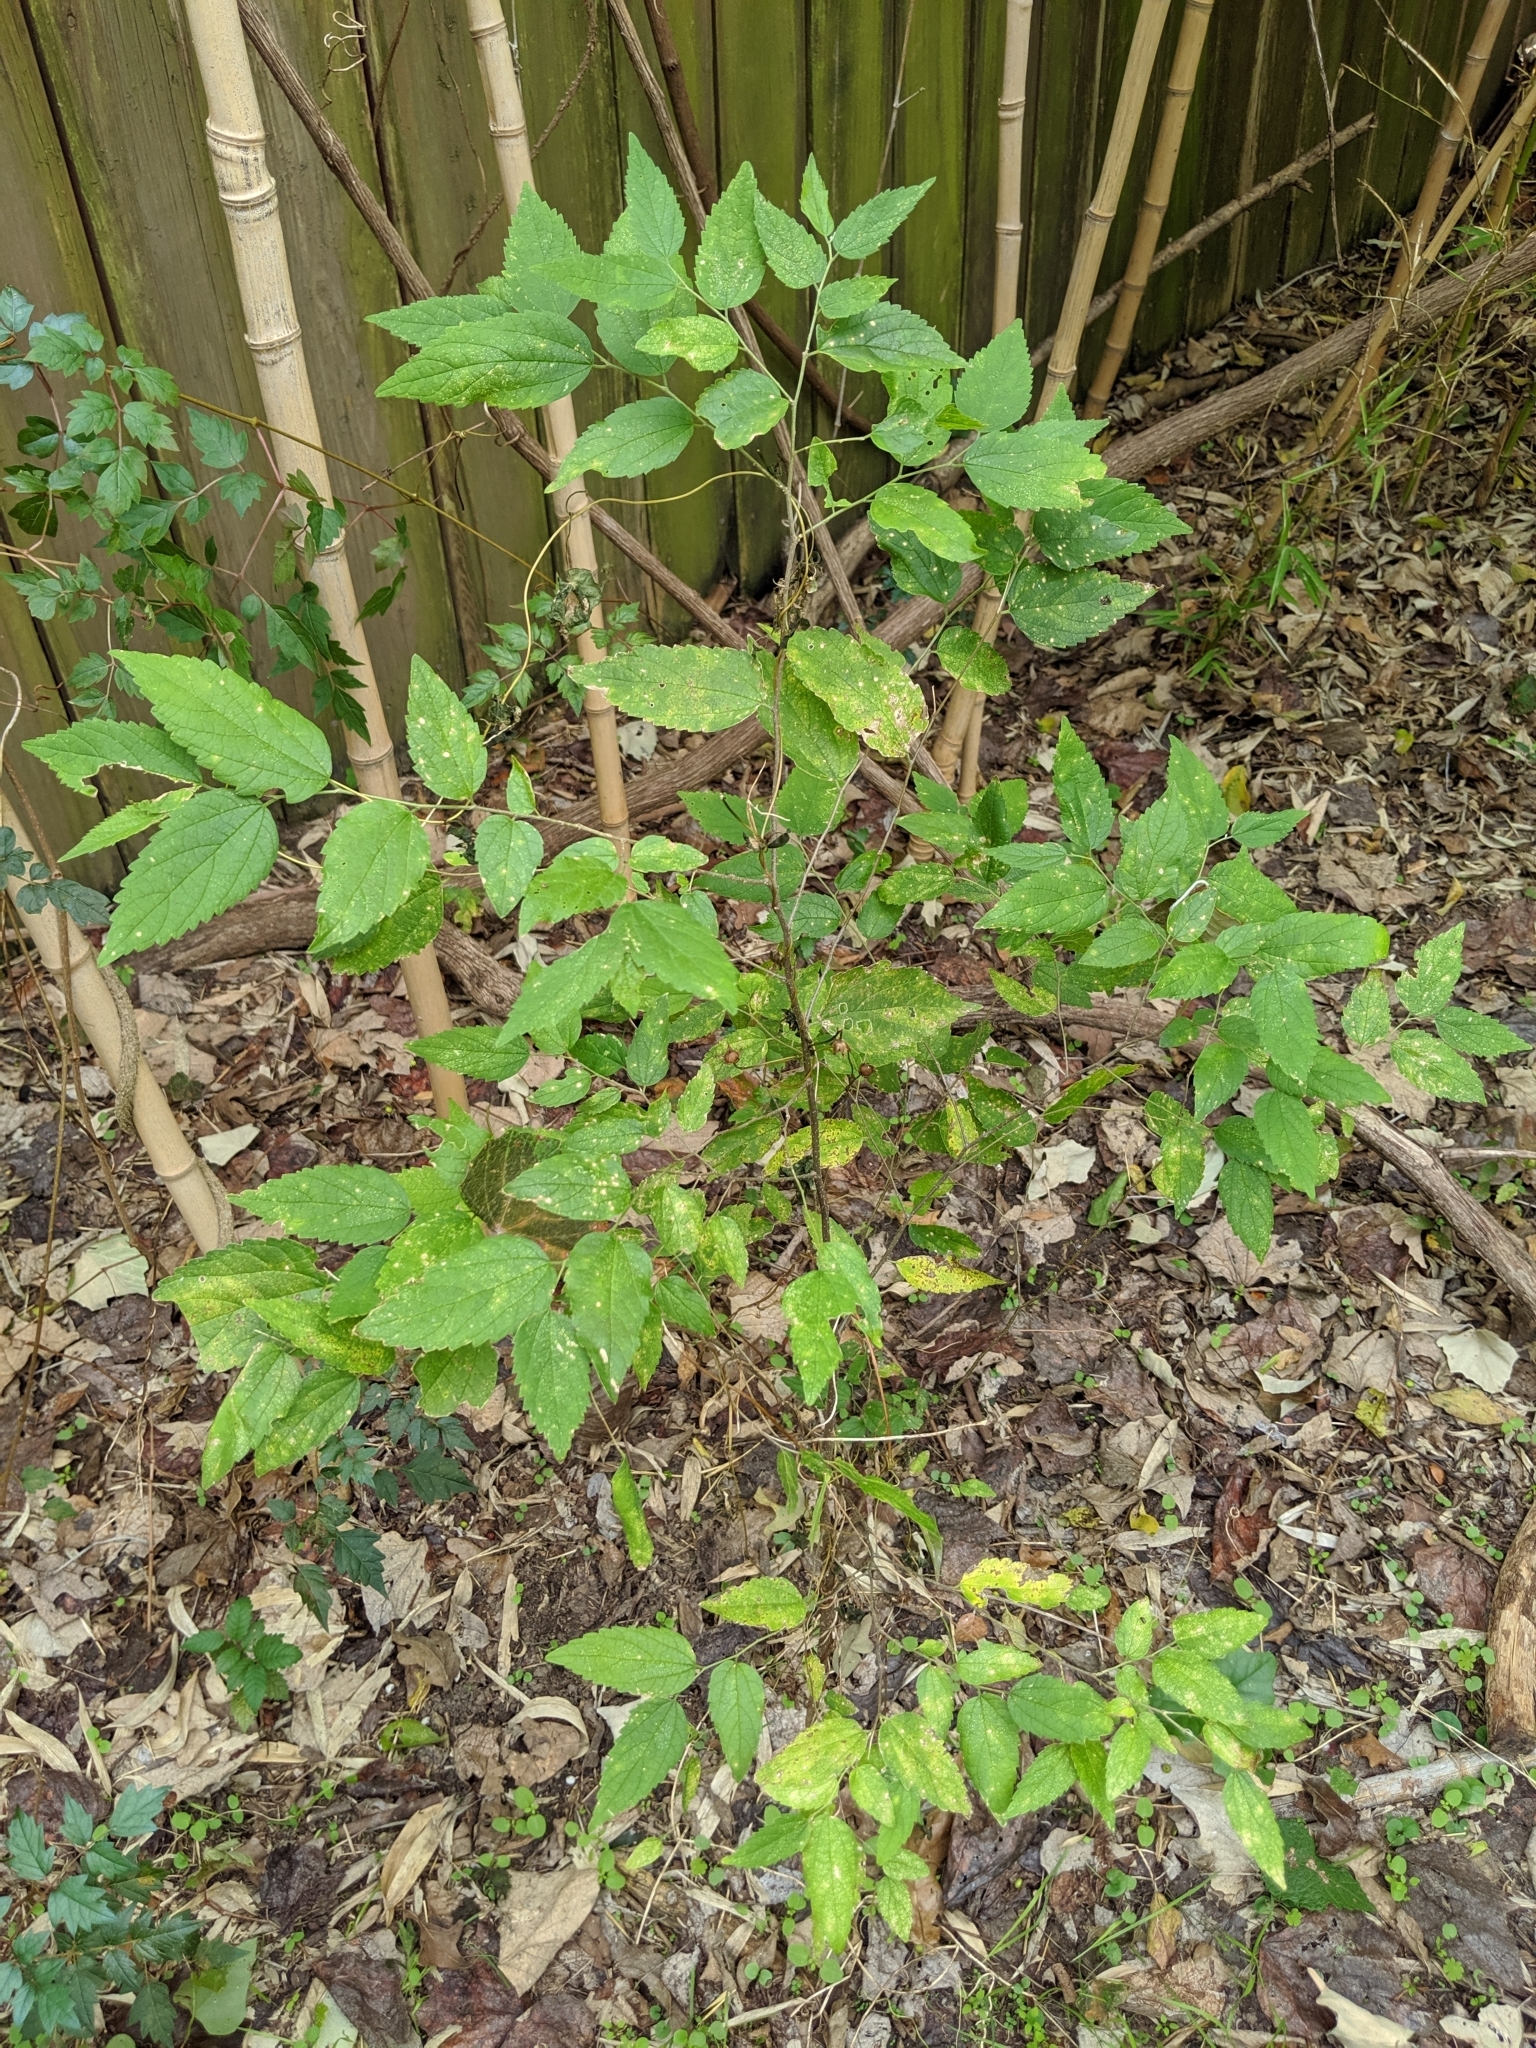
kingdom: Plantae
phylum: Tracheophyta
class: Magnoliopsida
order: Rosales
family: Cannabaceae
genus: Celtis
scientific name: Celtis laevigata
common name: Sugarberry
